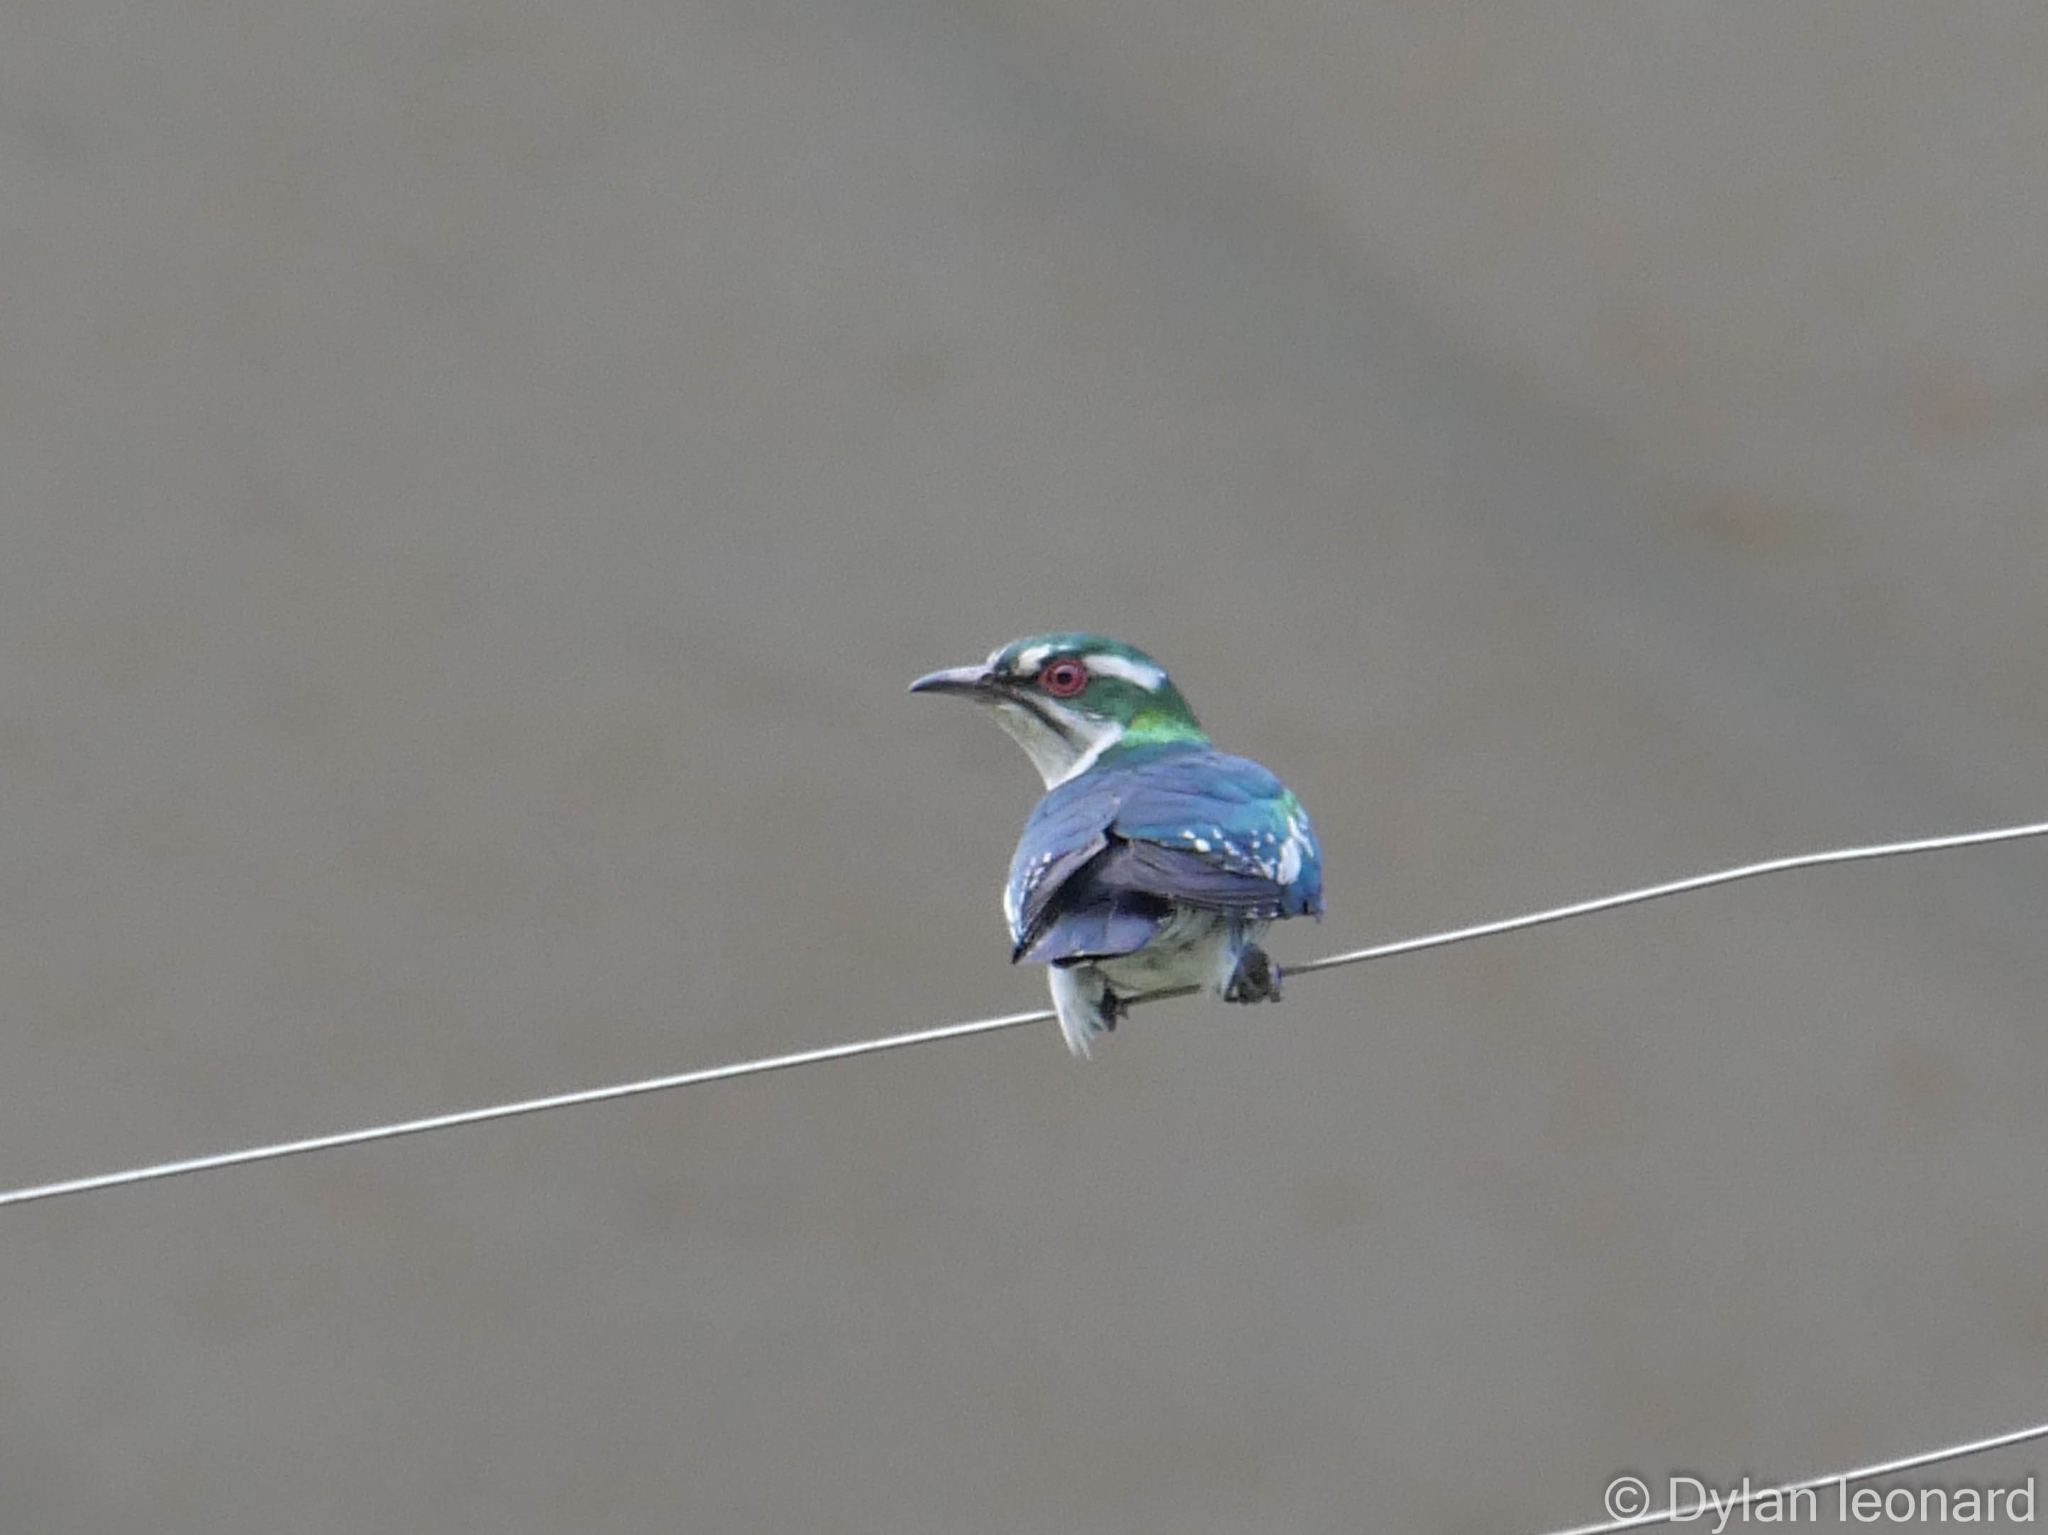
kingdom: Animalia
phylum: Chordata
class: Aves
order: Cuculiformes
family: Cuculidae
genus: Chrysococcyx
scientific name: Chrysococcyx caprius
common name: Diederik cuckoo
